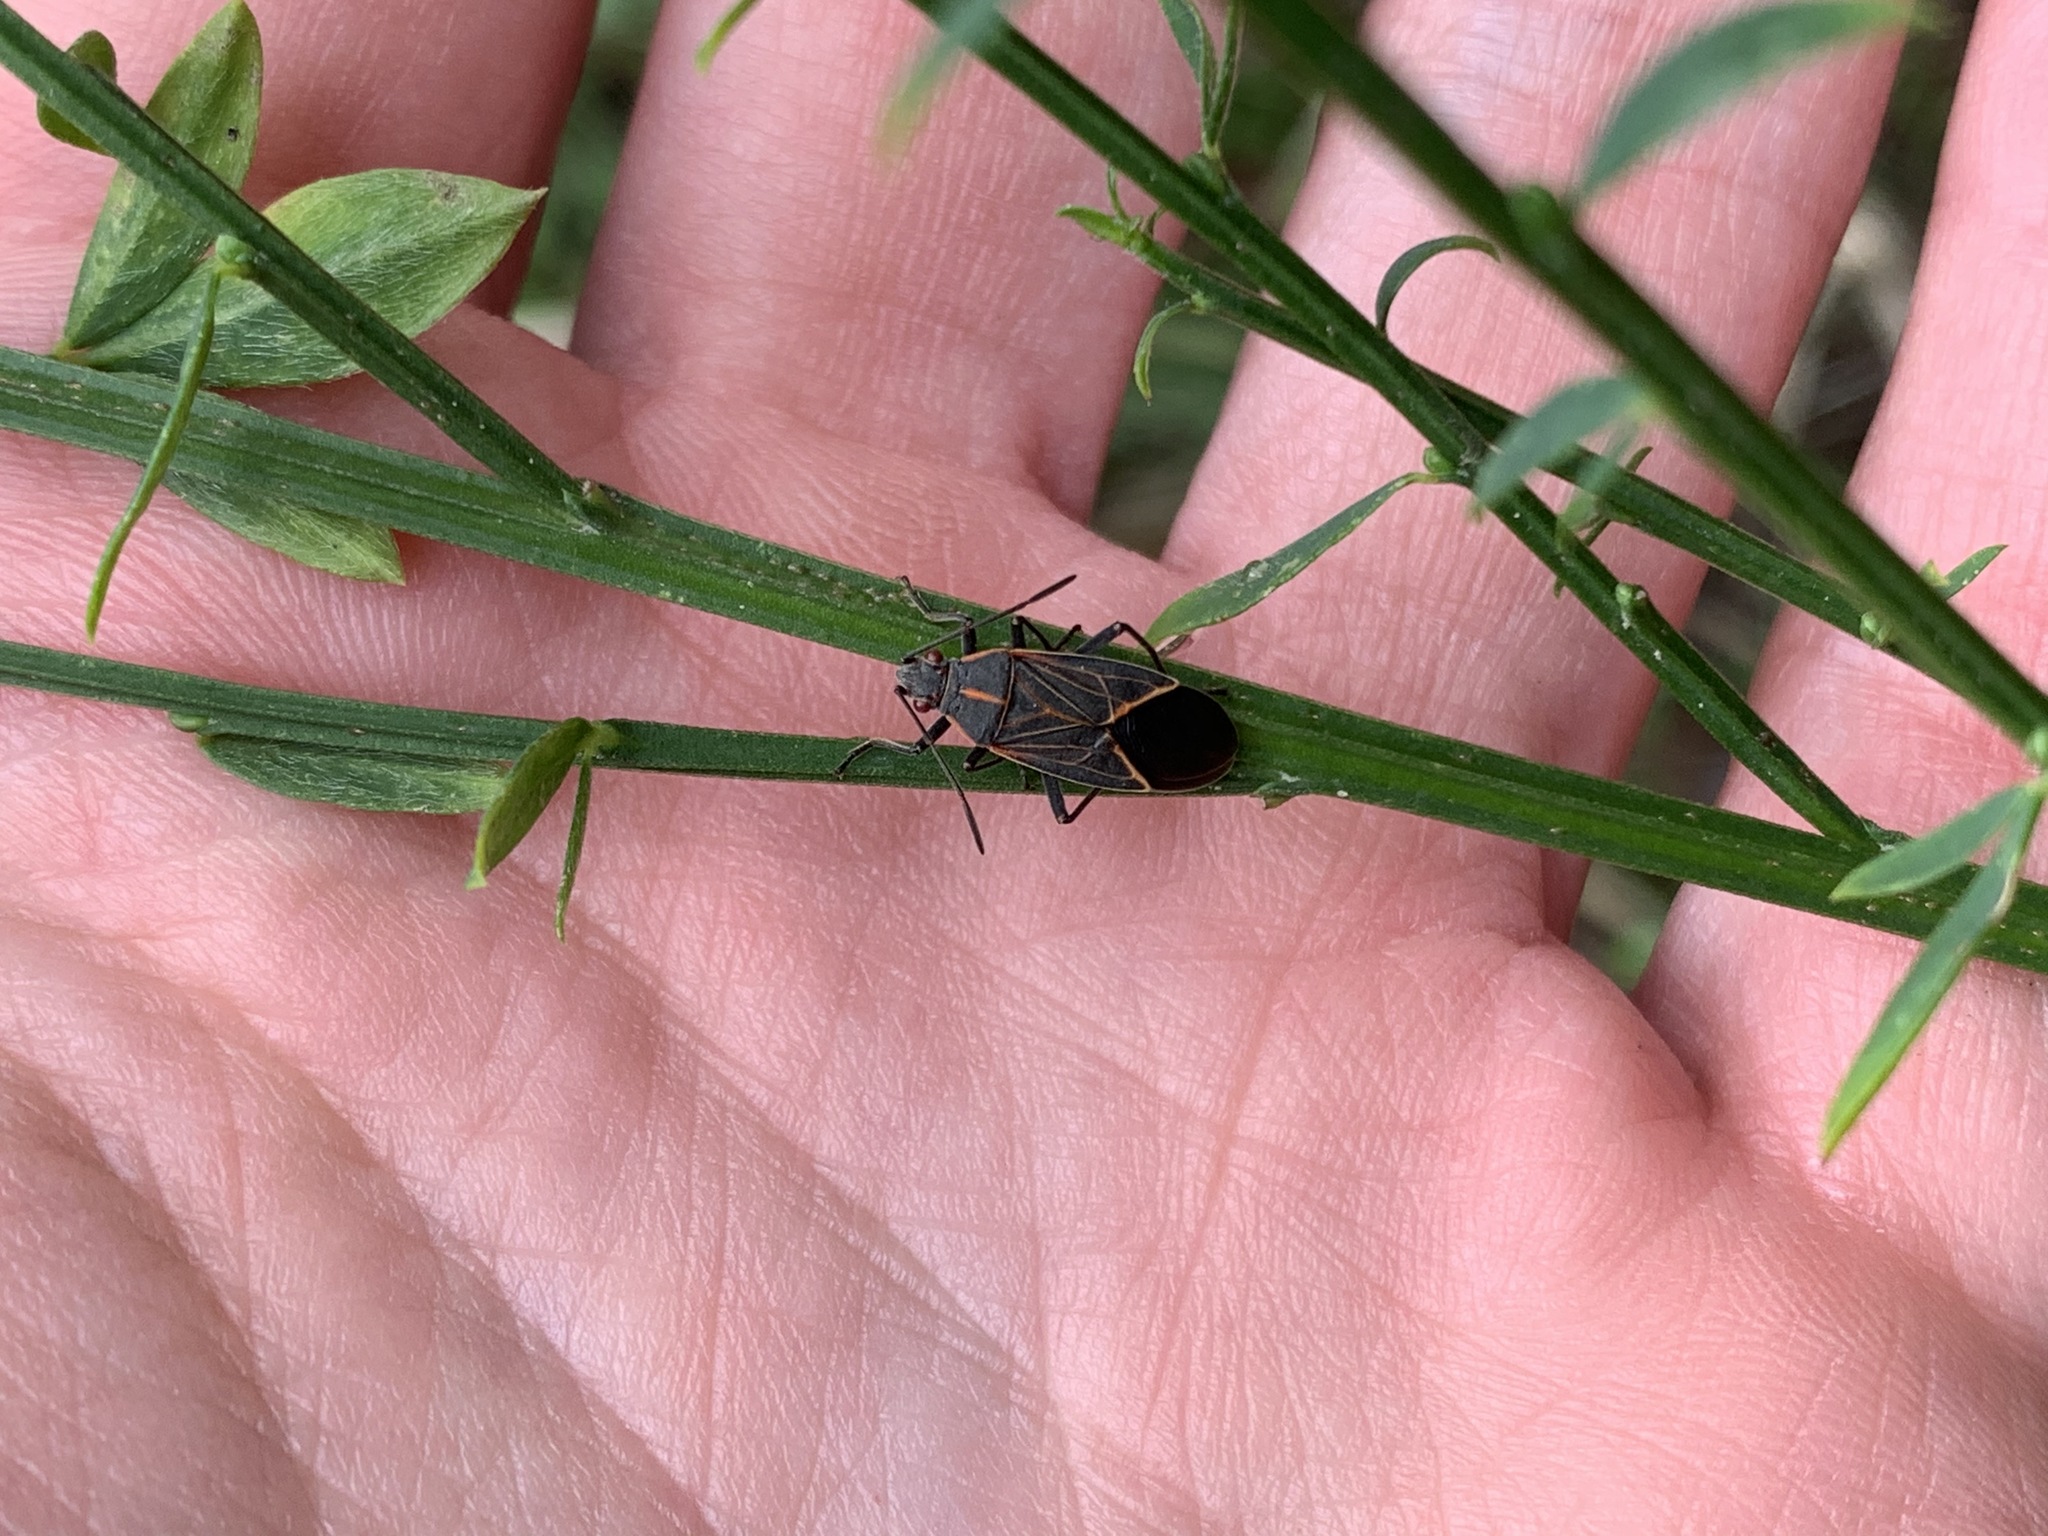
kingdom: Animalia
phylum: Arthropoda
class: Insecta
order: Hemiptera
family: Rhopalidae
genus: Boisea
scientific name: Boisea rubrolineata
